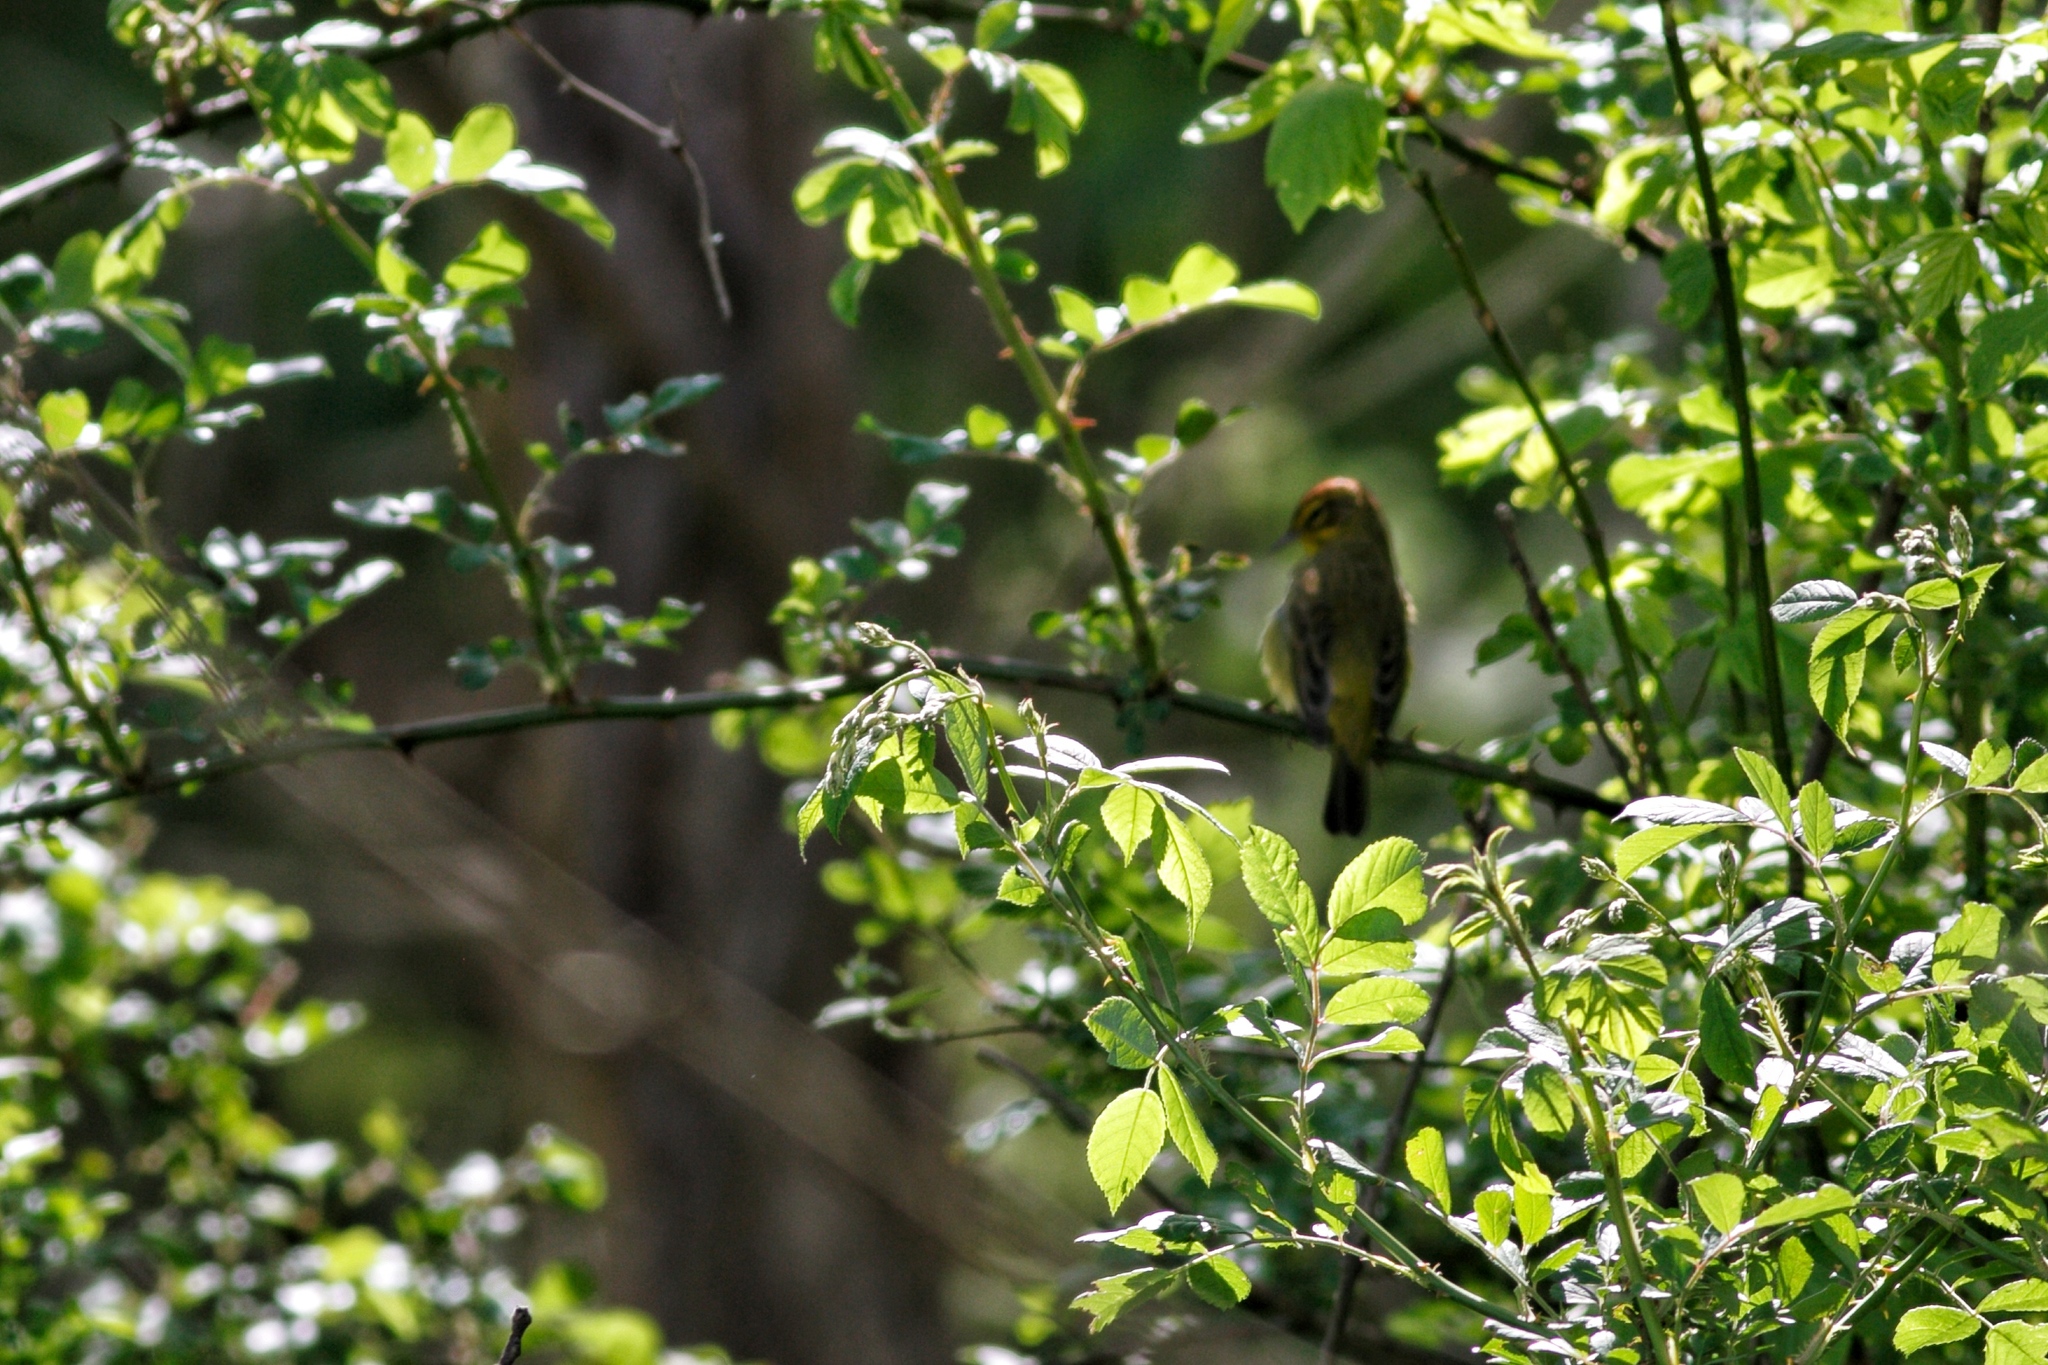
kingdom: Animalia
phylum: Chordata
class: Aves
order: Passeriformes
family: Parulidae
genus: Setophaga
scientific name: Setophaga palmarum
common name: Palm warbler
